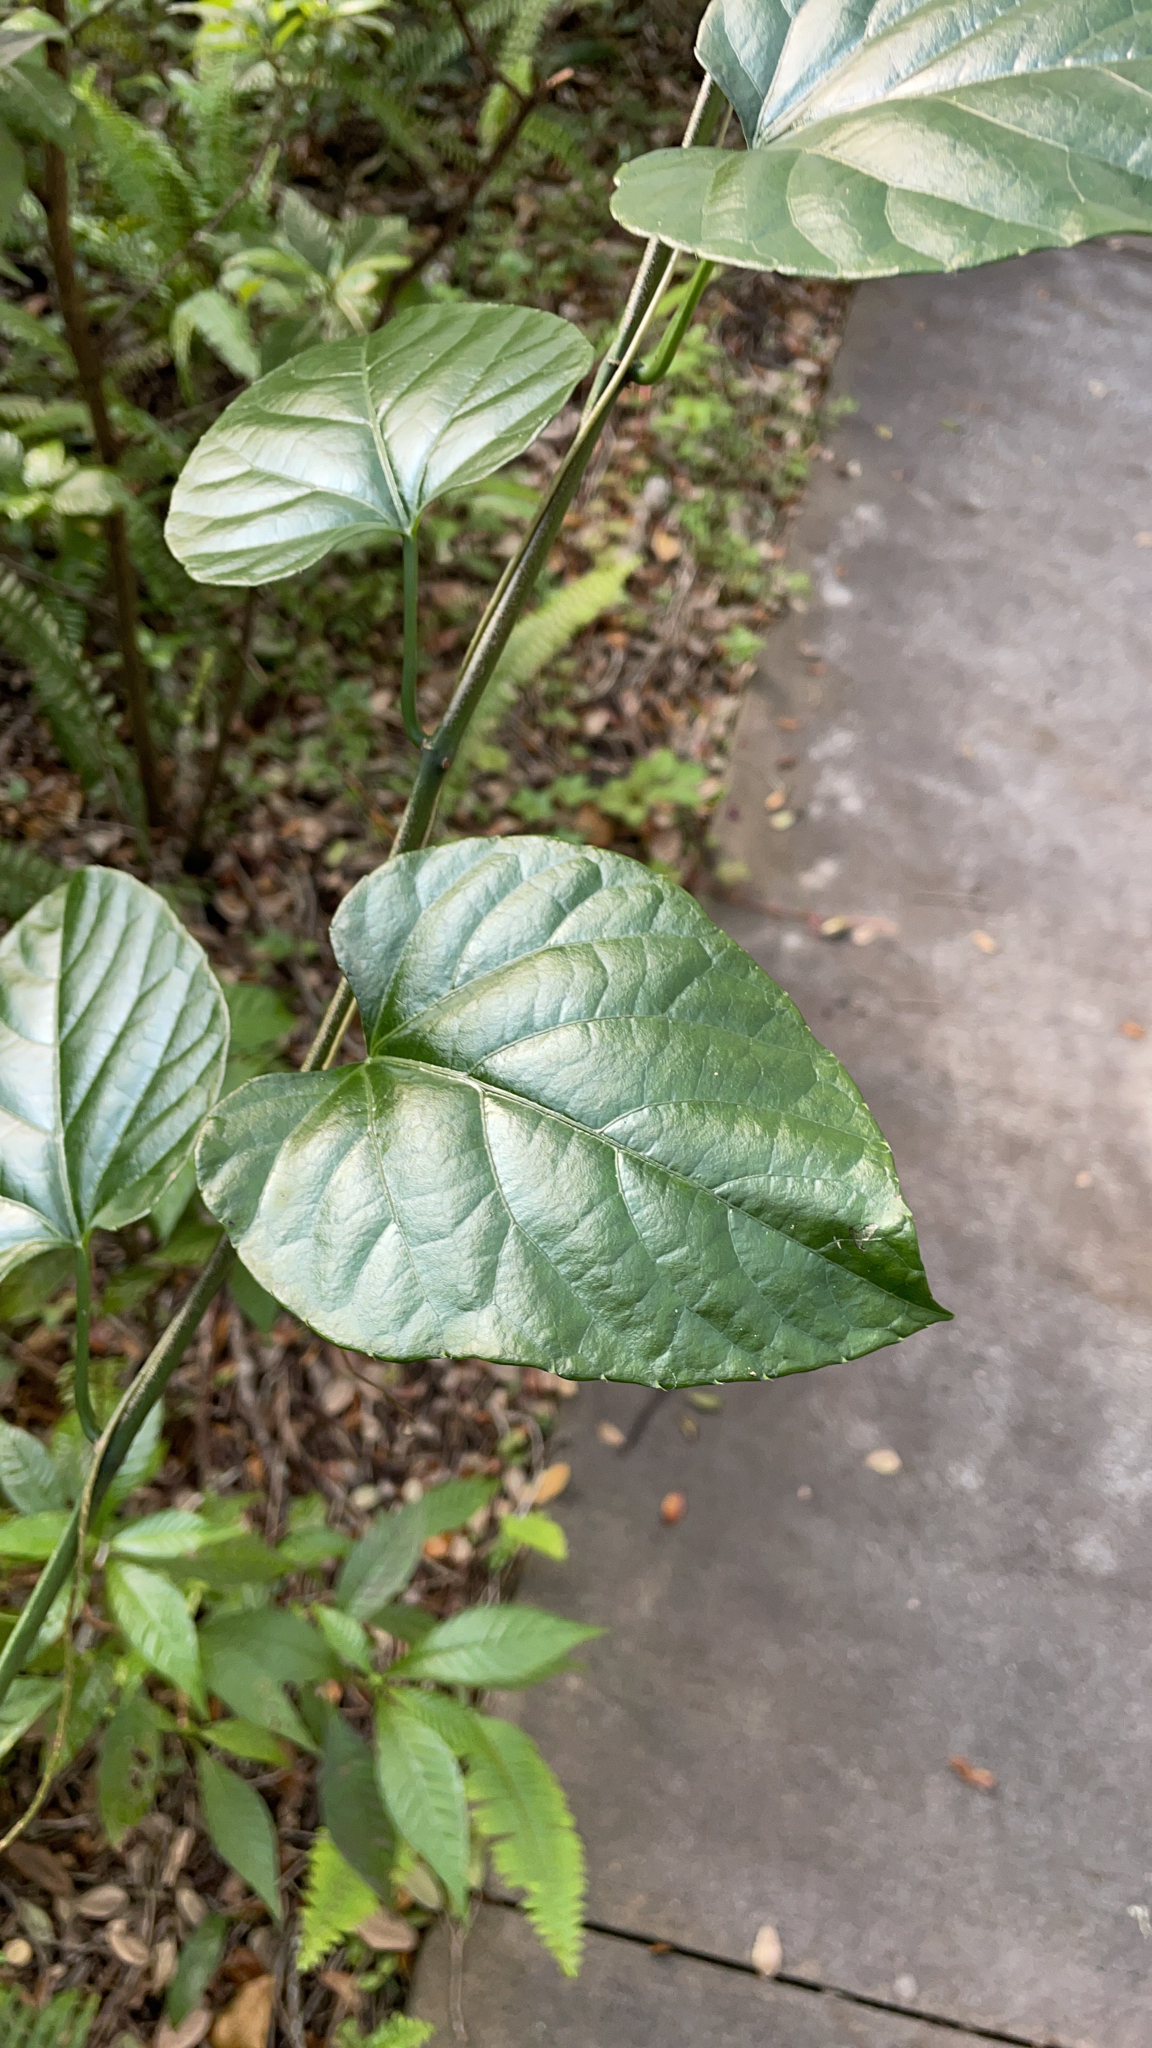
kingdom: Plantae
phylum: Tracheophyta
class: Magnoliopsida
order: Vitales
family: Vitaceae
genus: Cissus
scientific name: Cissus verticillata
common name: Princess vine
